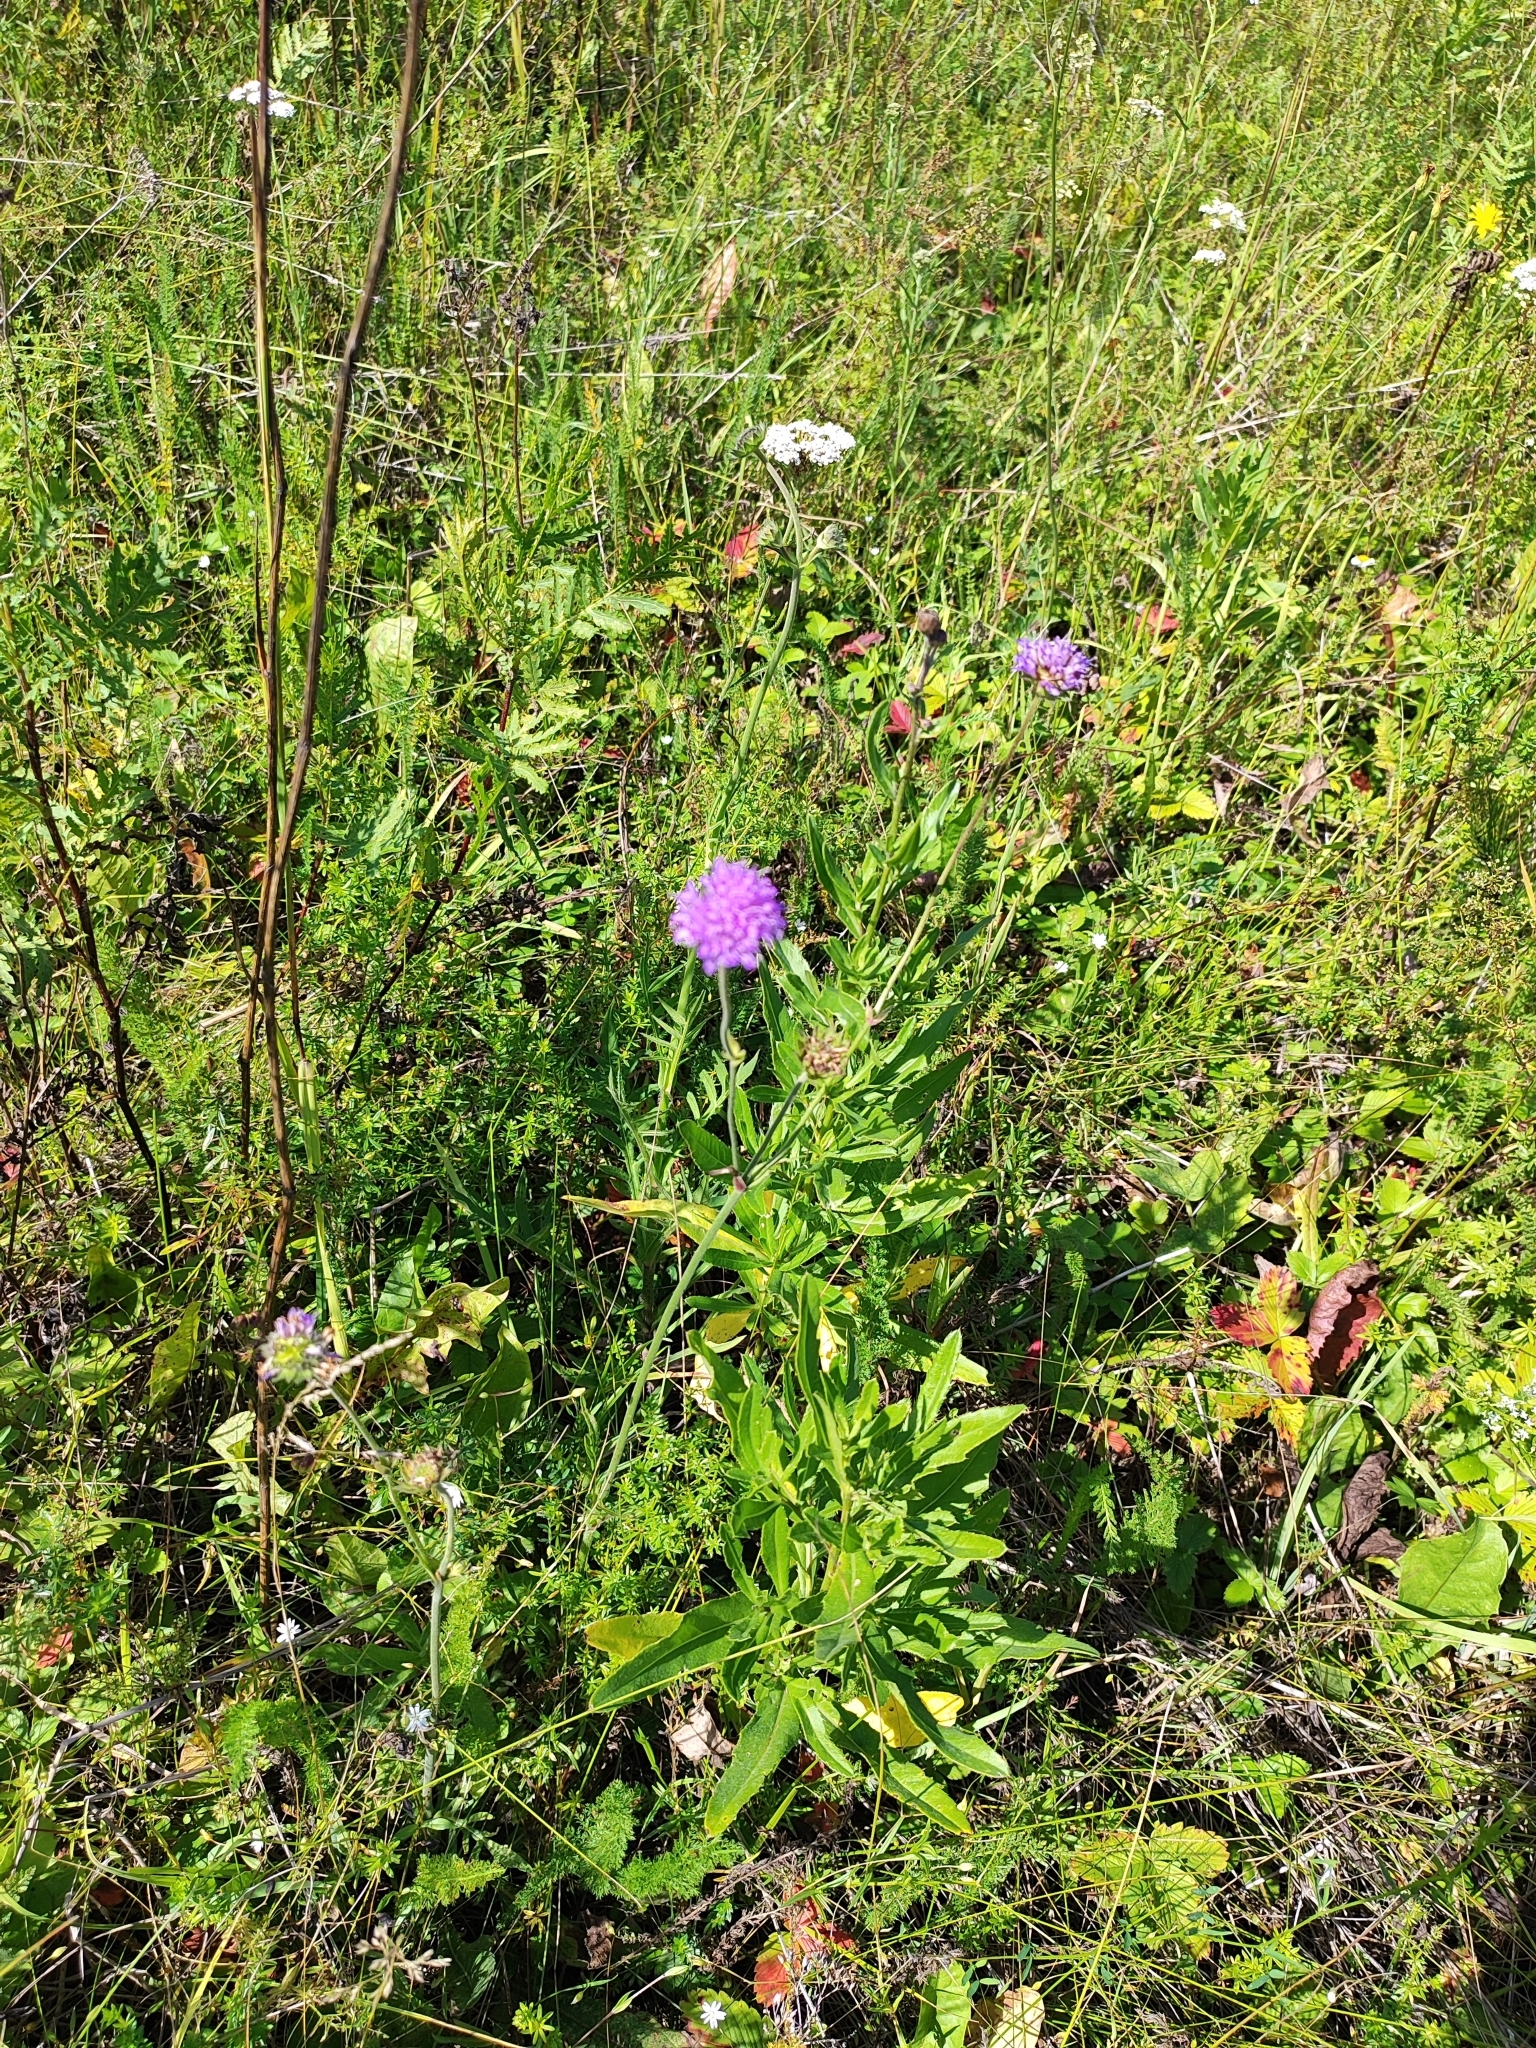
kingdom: Plantae
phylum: Tracheophyta
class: Magnoliopsida
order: Dipsacales
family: Caprifoliaceae
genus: Knautia
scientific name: Knautia arvensis
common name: Field scabiosa
